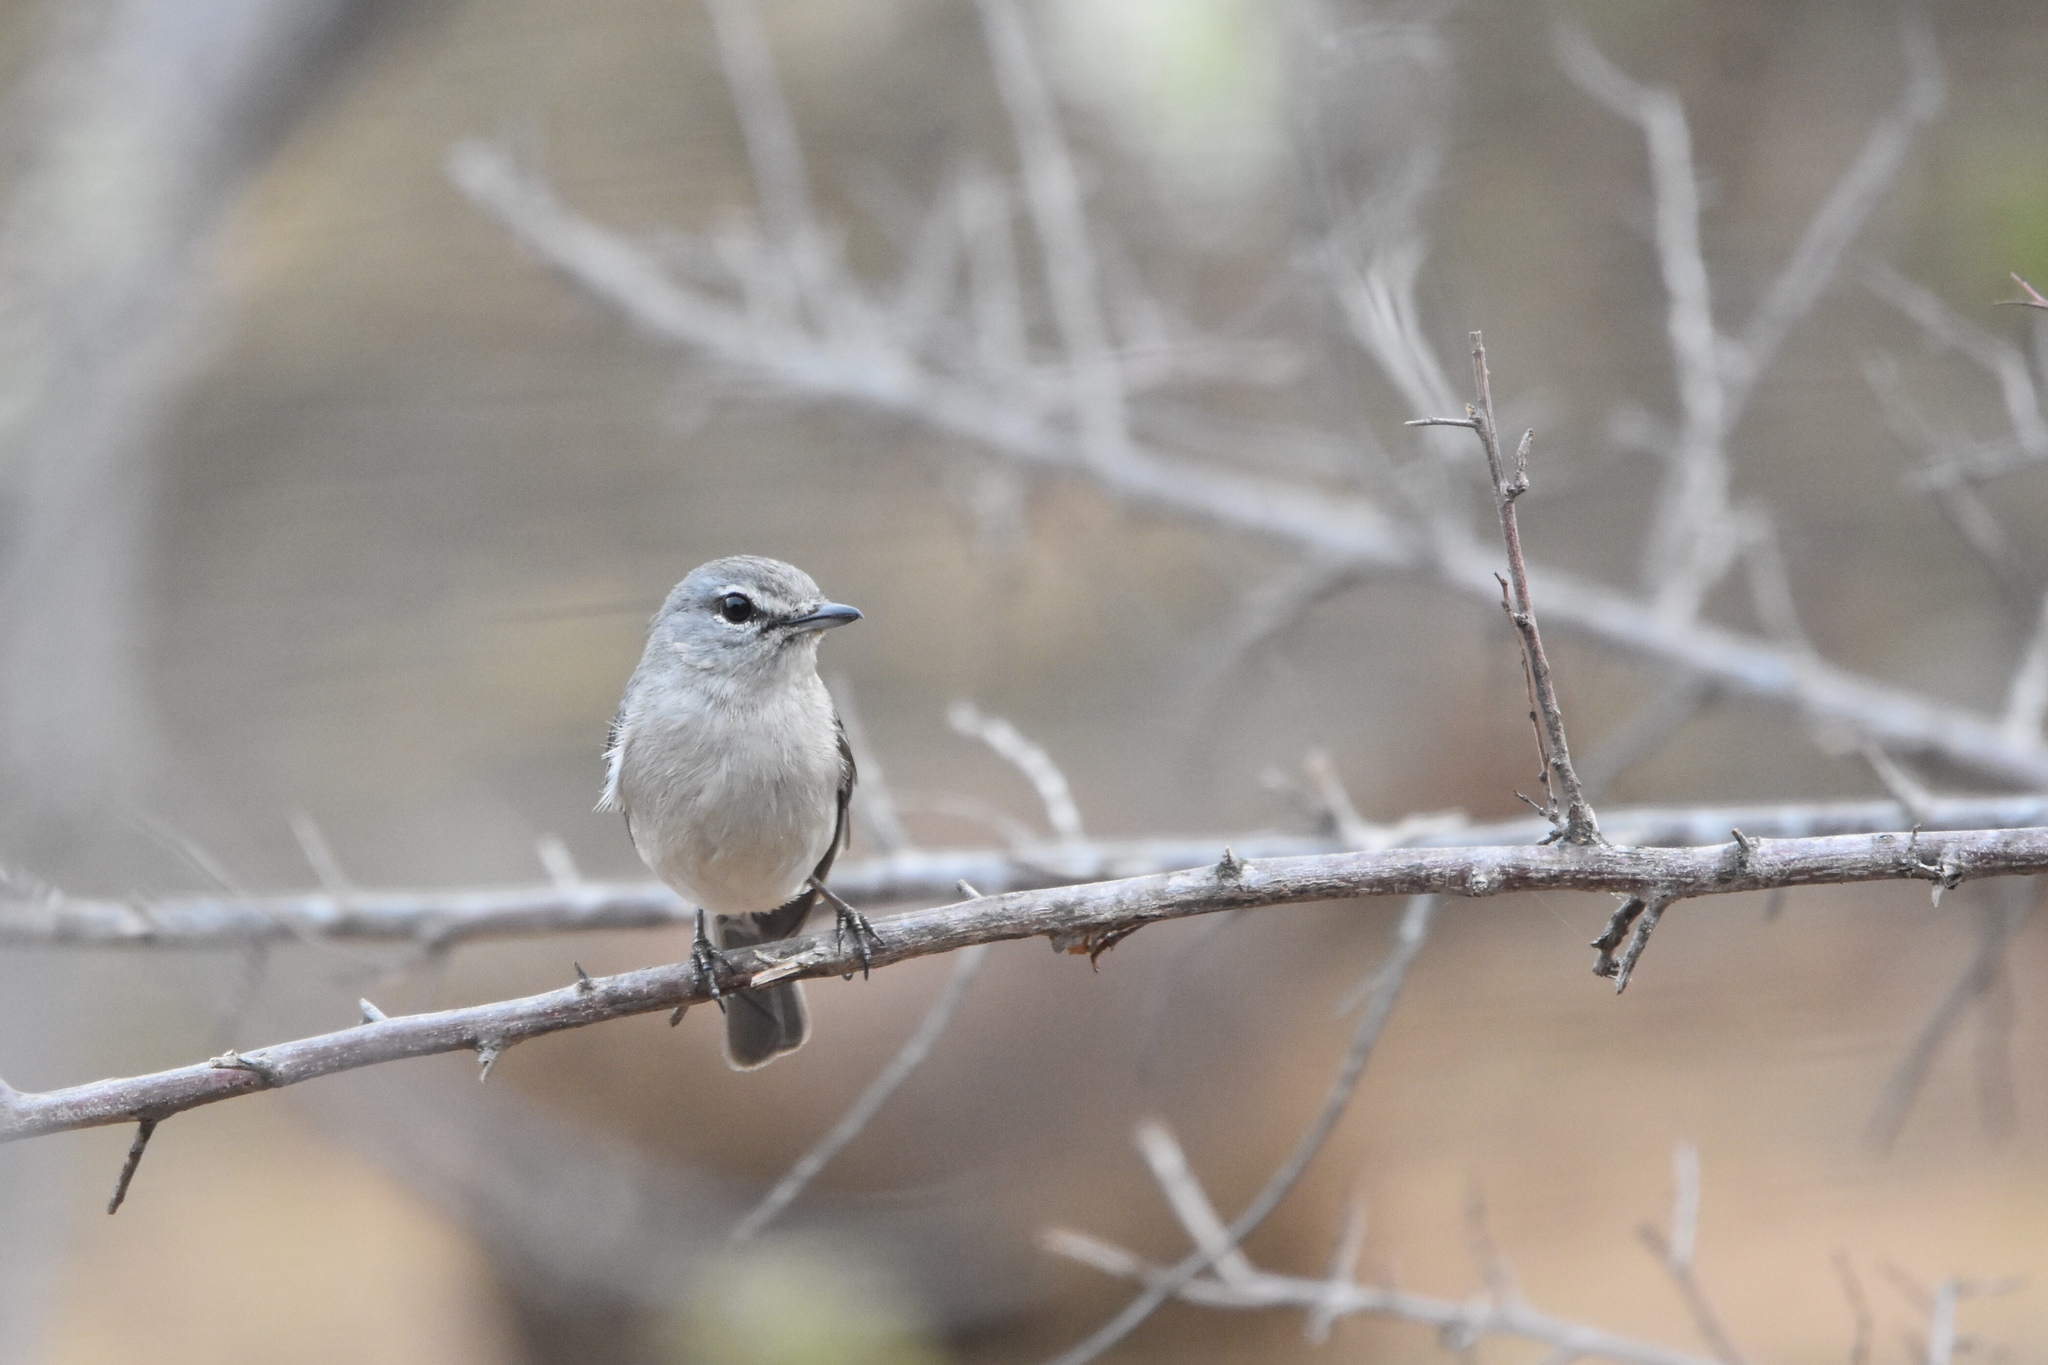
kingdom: Animalia
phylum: Chordata
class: Aves
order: Passeriformes
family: Muscicapidae
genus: Muscicapa
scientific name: Muscicapa caerulescens
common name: Ashy flycatcher
